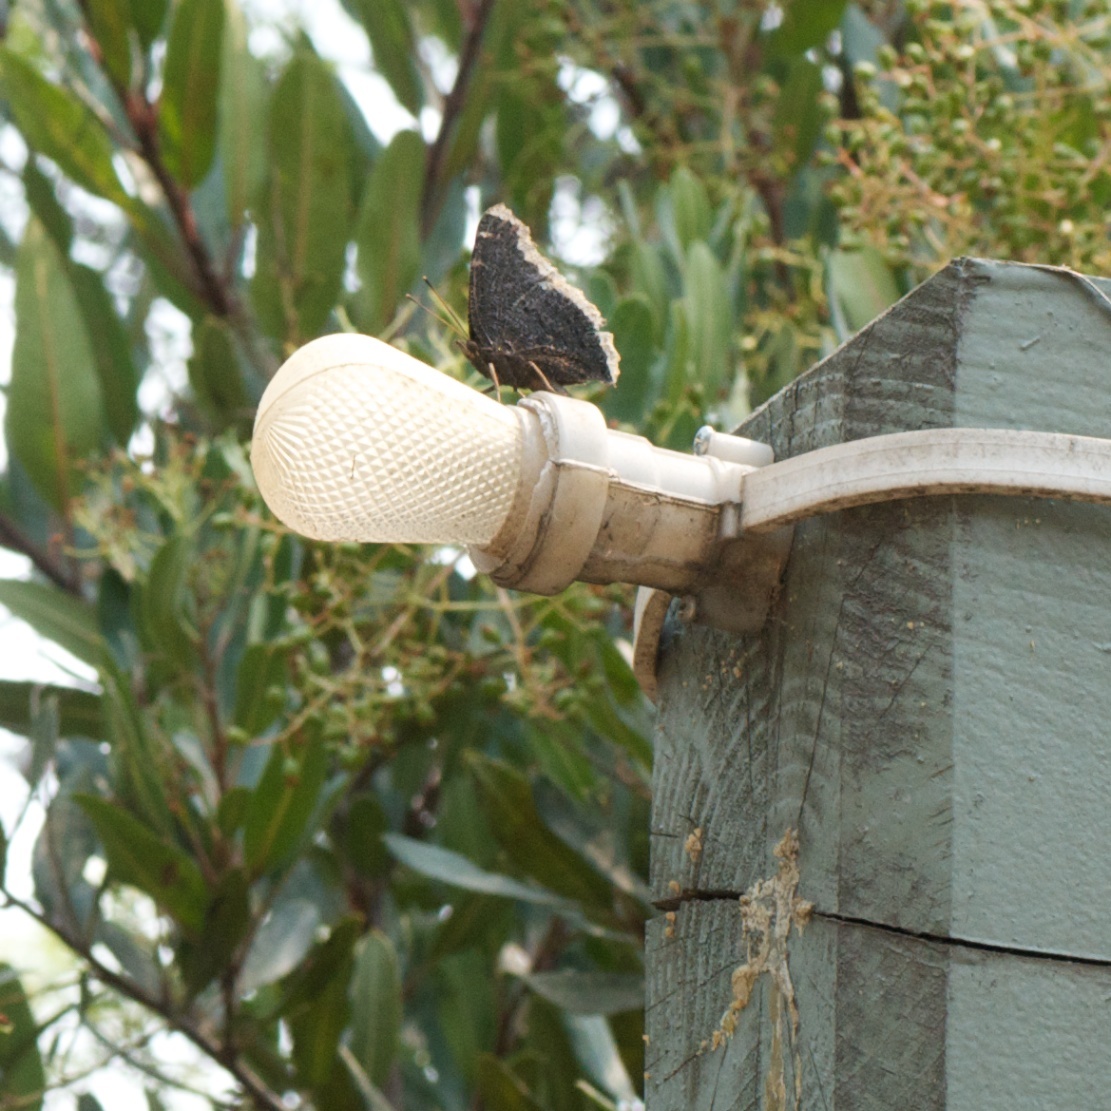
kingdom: Animalia
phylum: Arthropoda
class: Insecta
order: Lepidoptera
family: Nymphalidae
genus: Nymphalis
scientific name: Nymphalis antiopa
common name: Camberwell beauty
